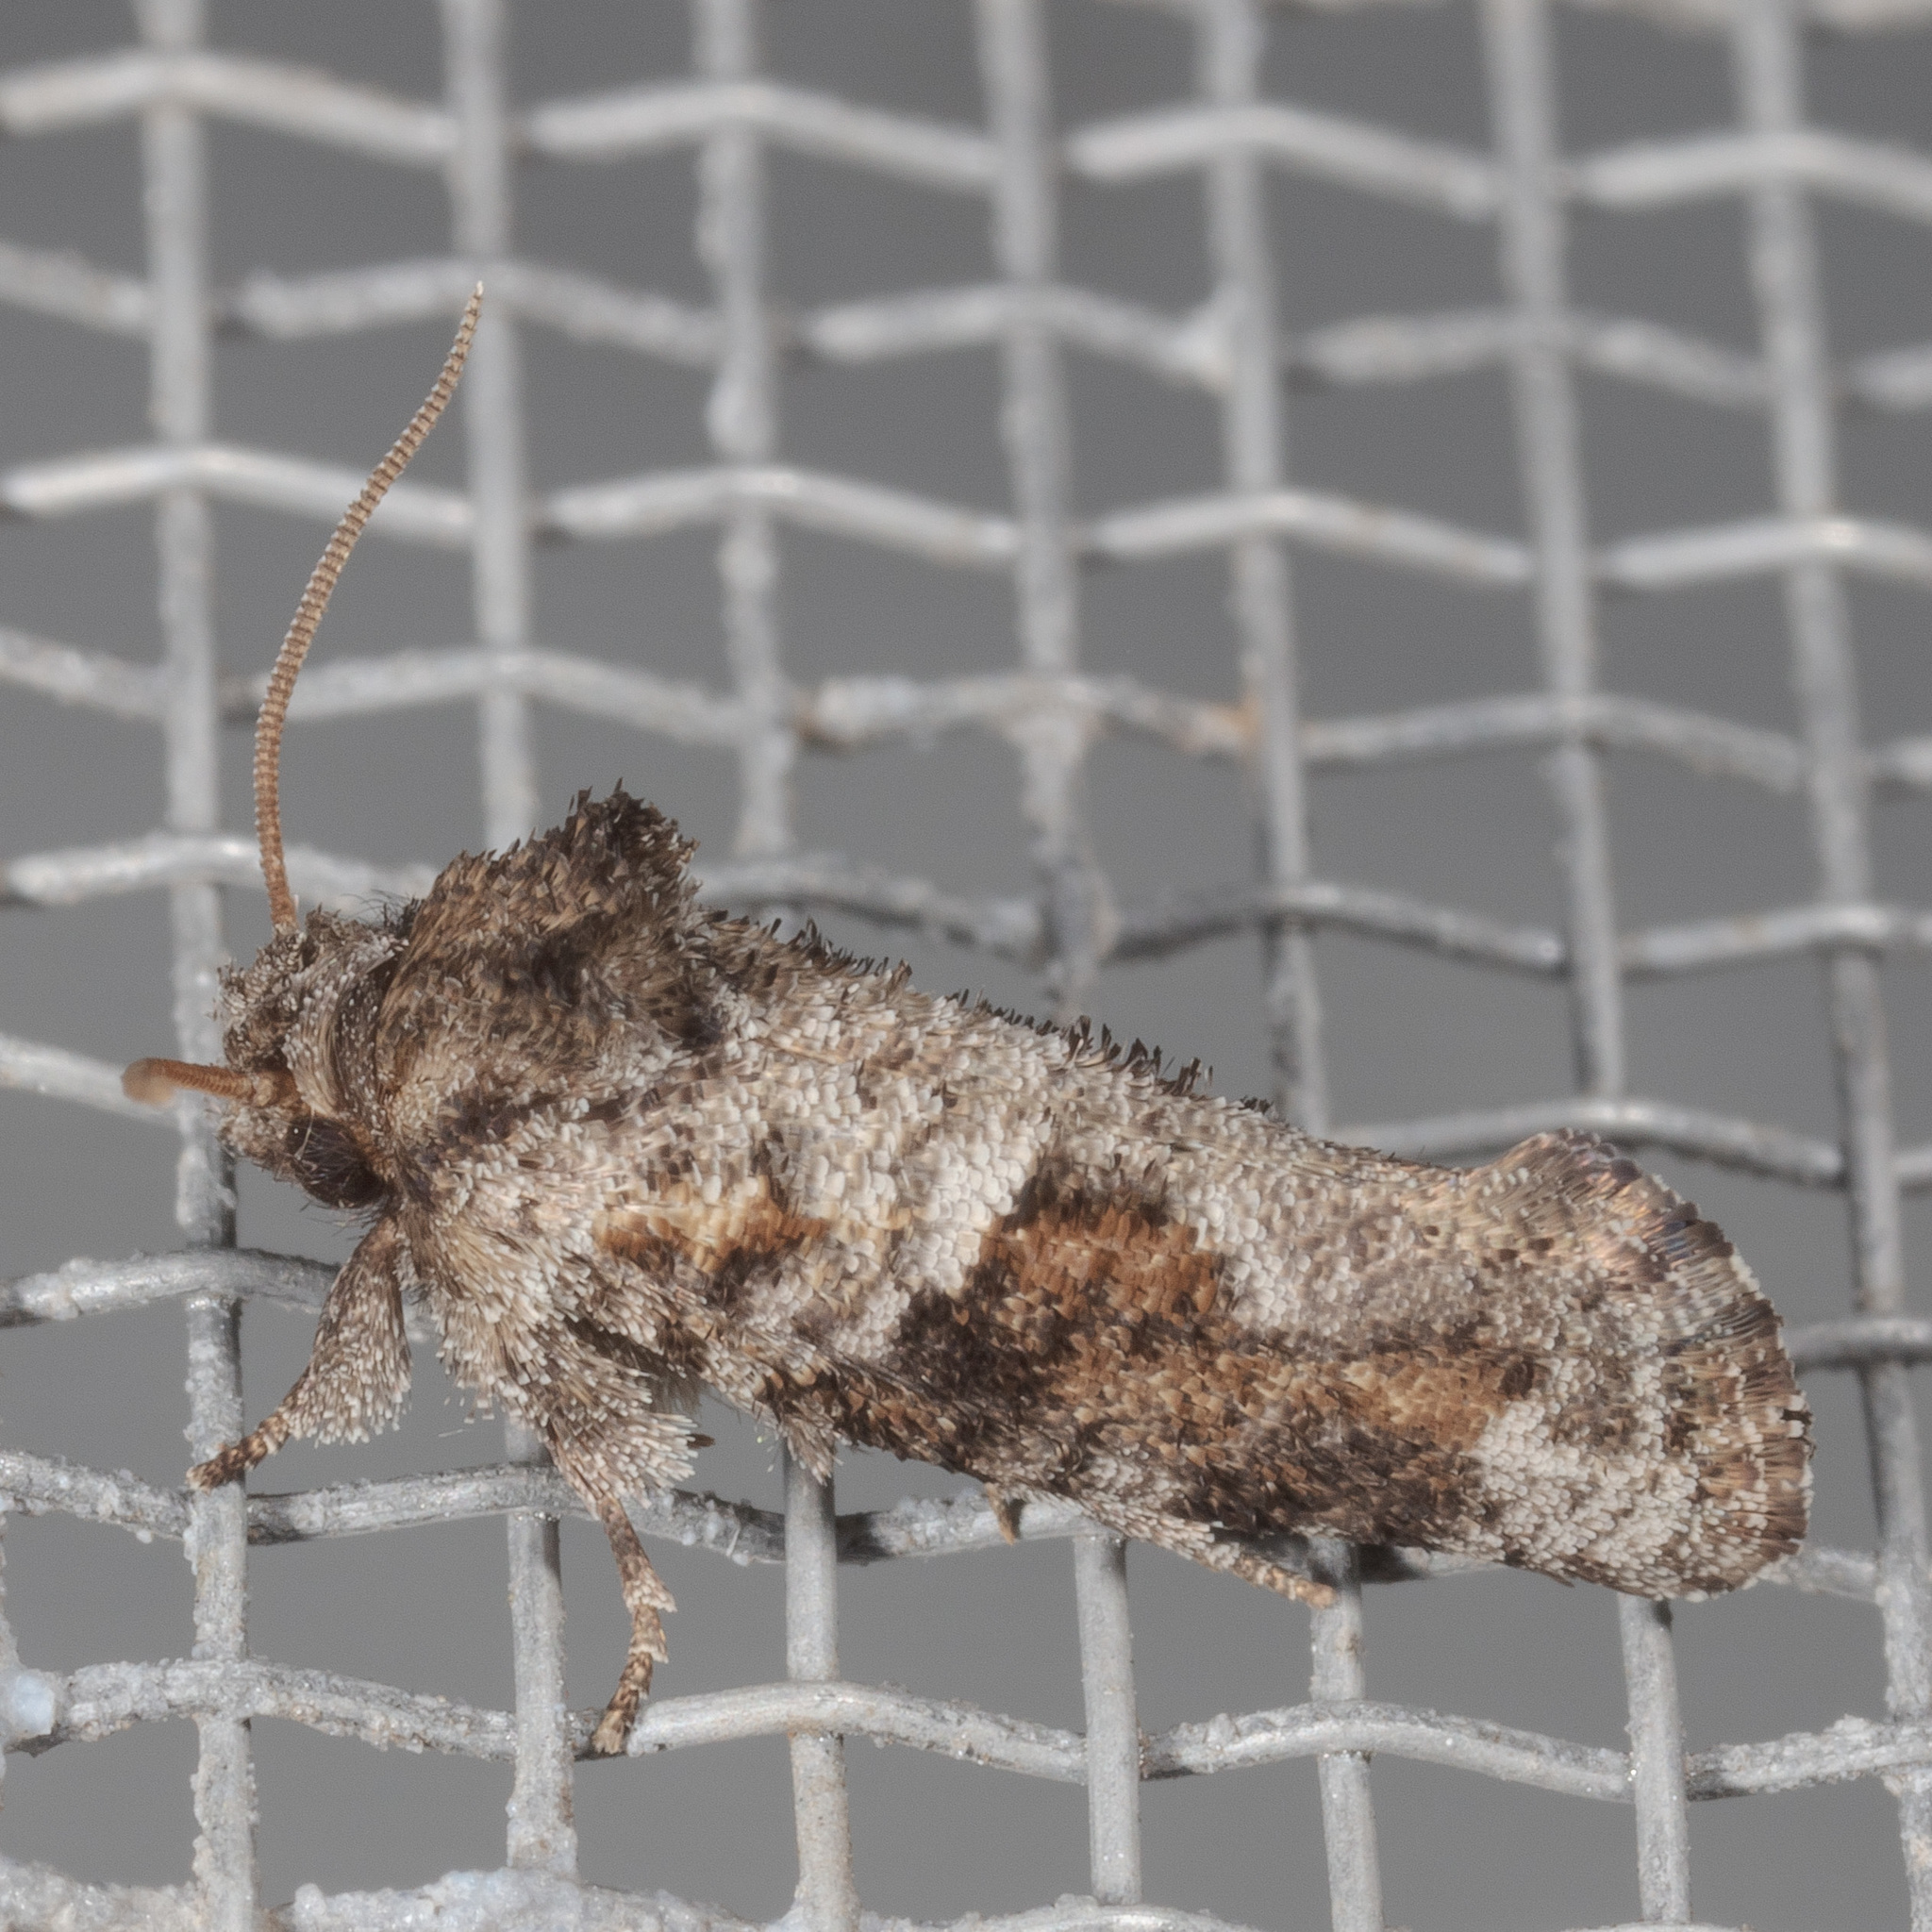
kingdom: Animalia
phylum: Arthropoda
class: Insecta
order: Lepidoptera
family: Tineidae
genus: Acrolophus
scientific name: Acrolophus piger
